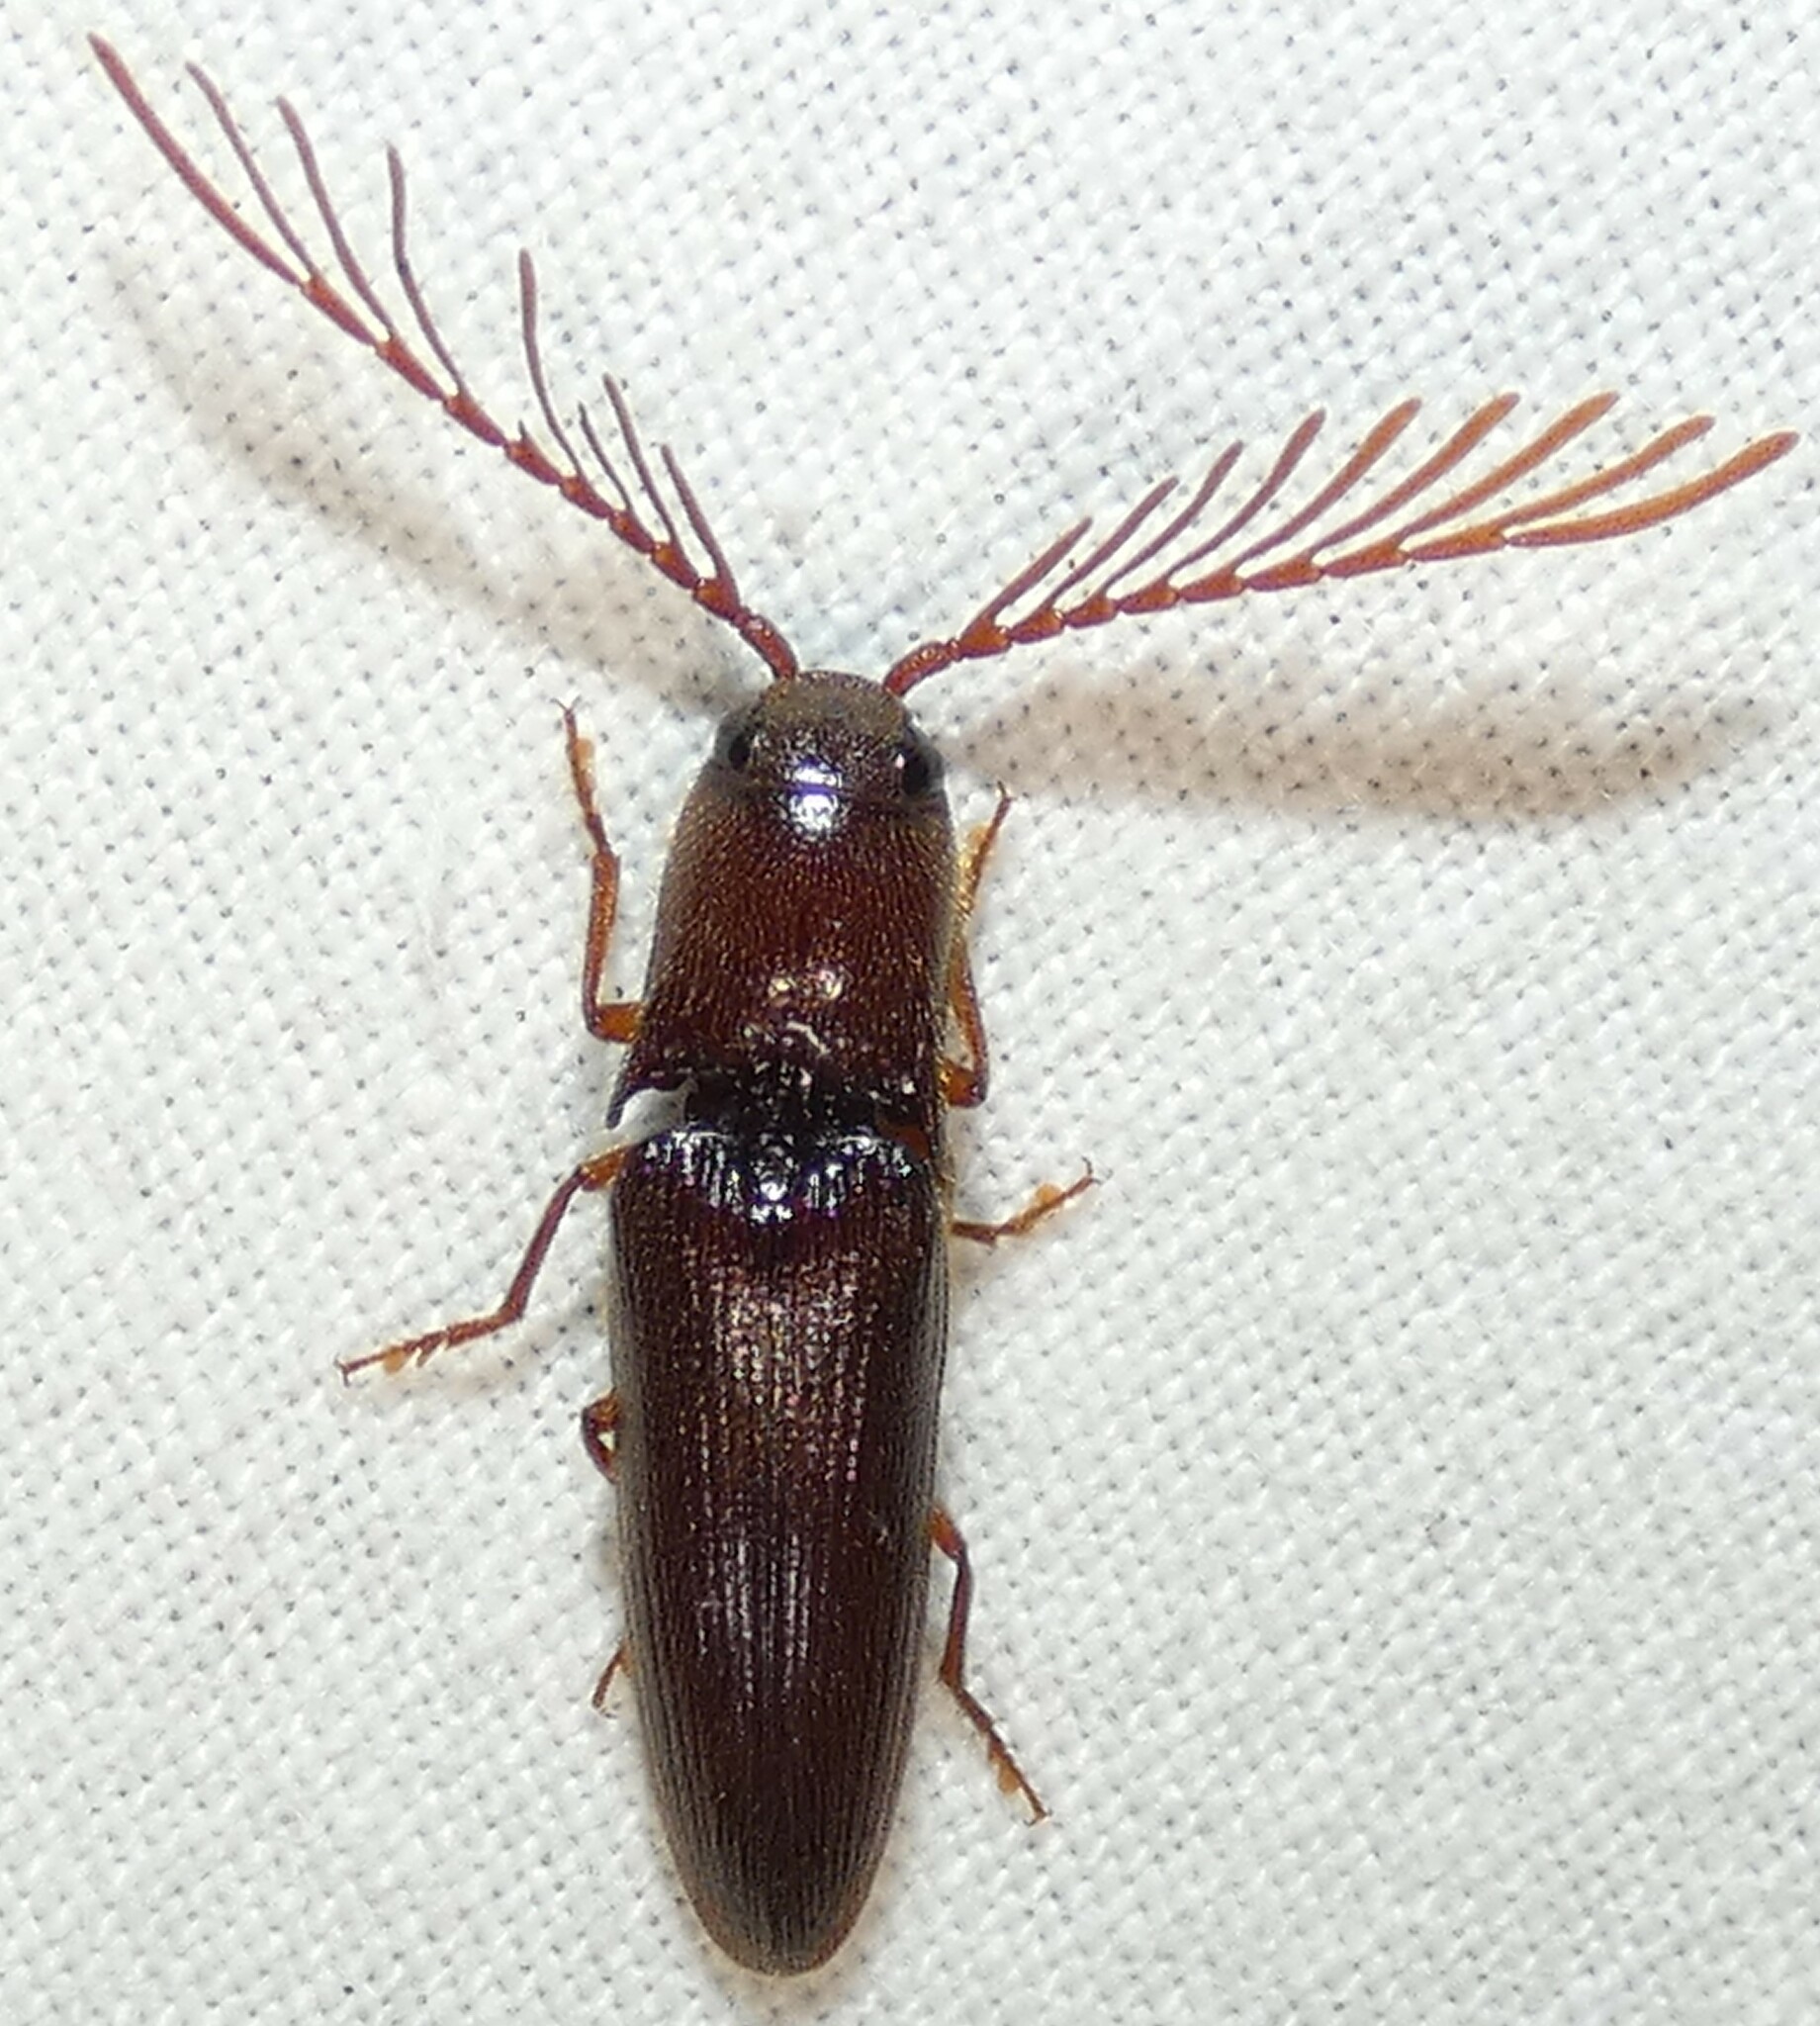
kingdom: Animalia
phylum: Arthropoda
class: Insecta
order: Coleoptera
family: Elateridae
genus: Dicrepidius
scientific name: Dicrepidius palmatus
